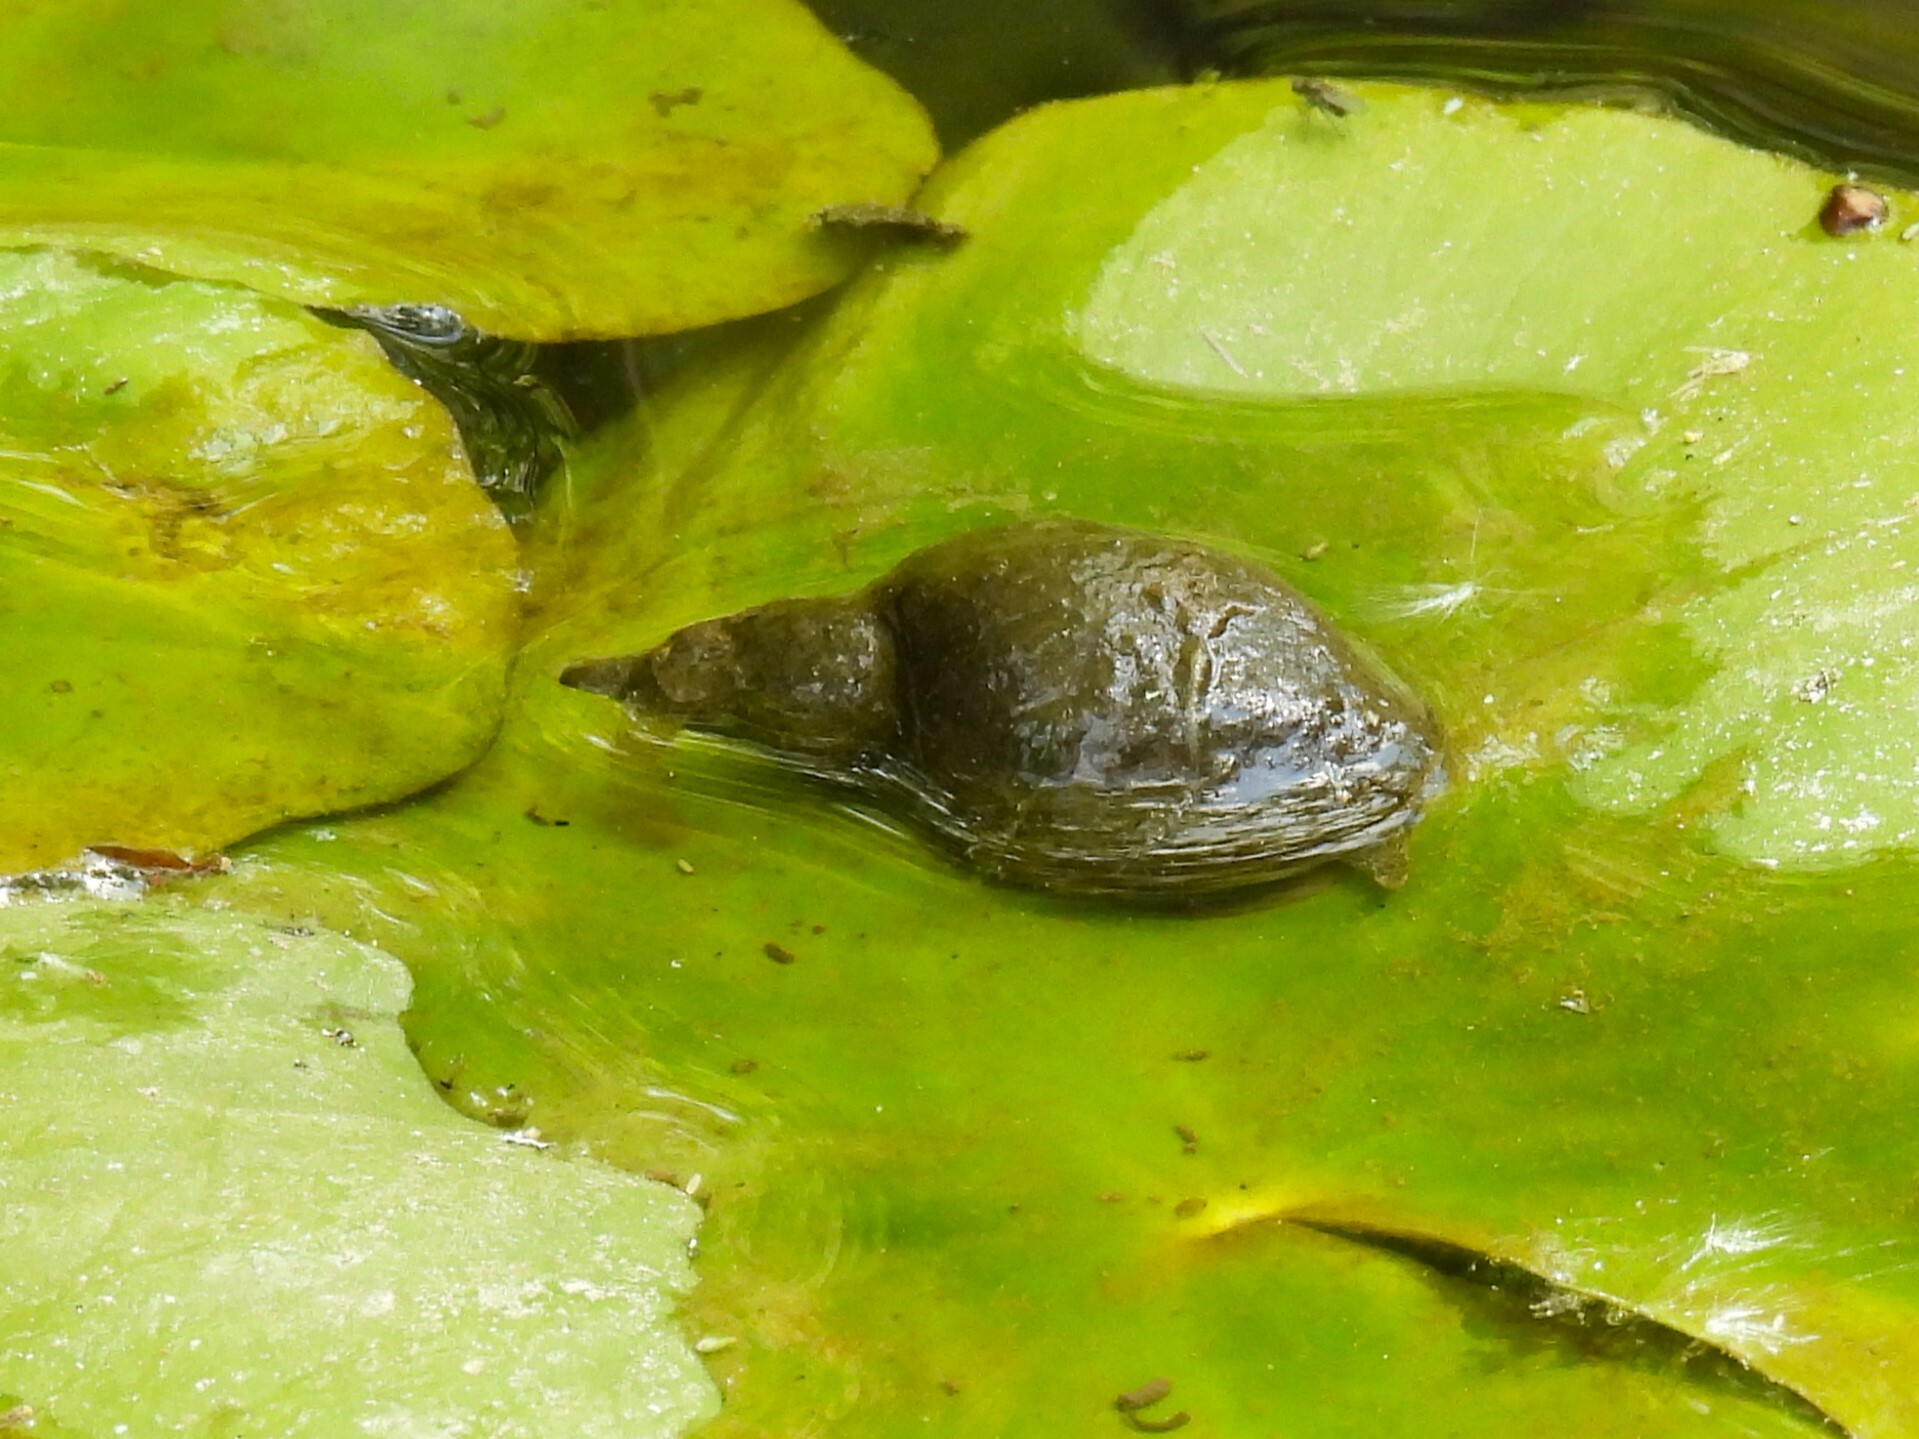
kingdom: Animalia
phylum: Mollusca
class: Gastropoda
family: Lymnaeidae
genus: Lymnaea
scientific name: Lymnaea stagnalis
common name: Great pond snail
